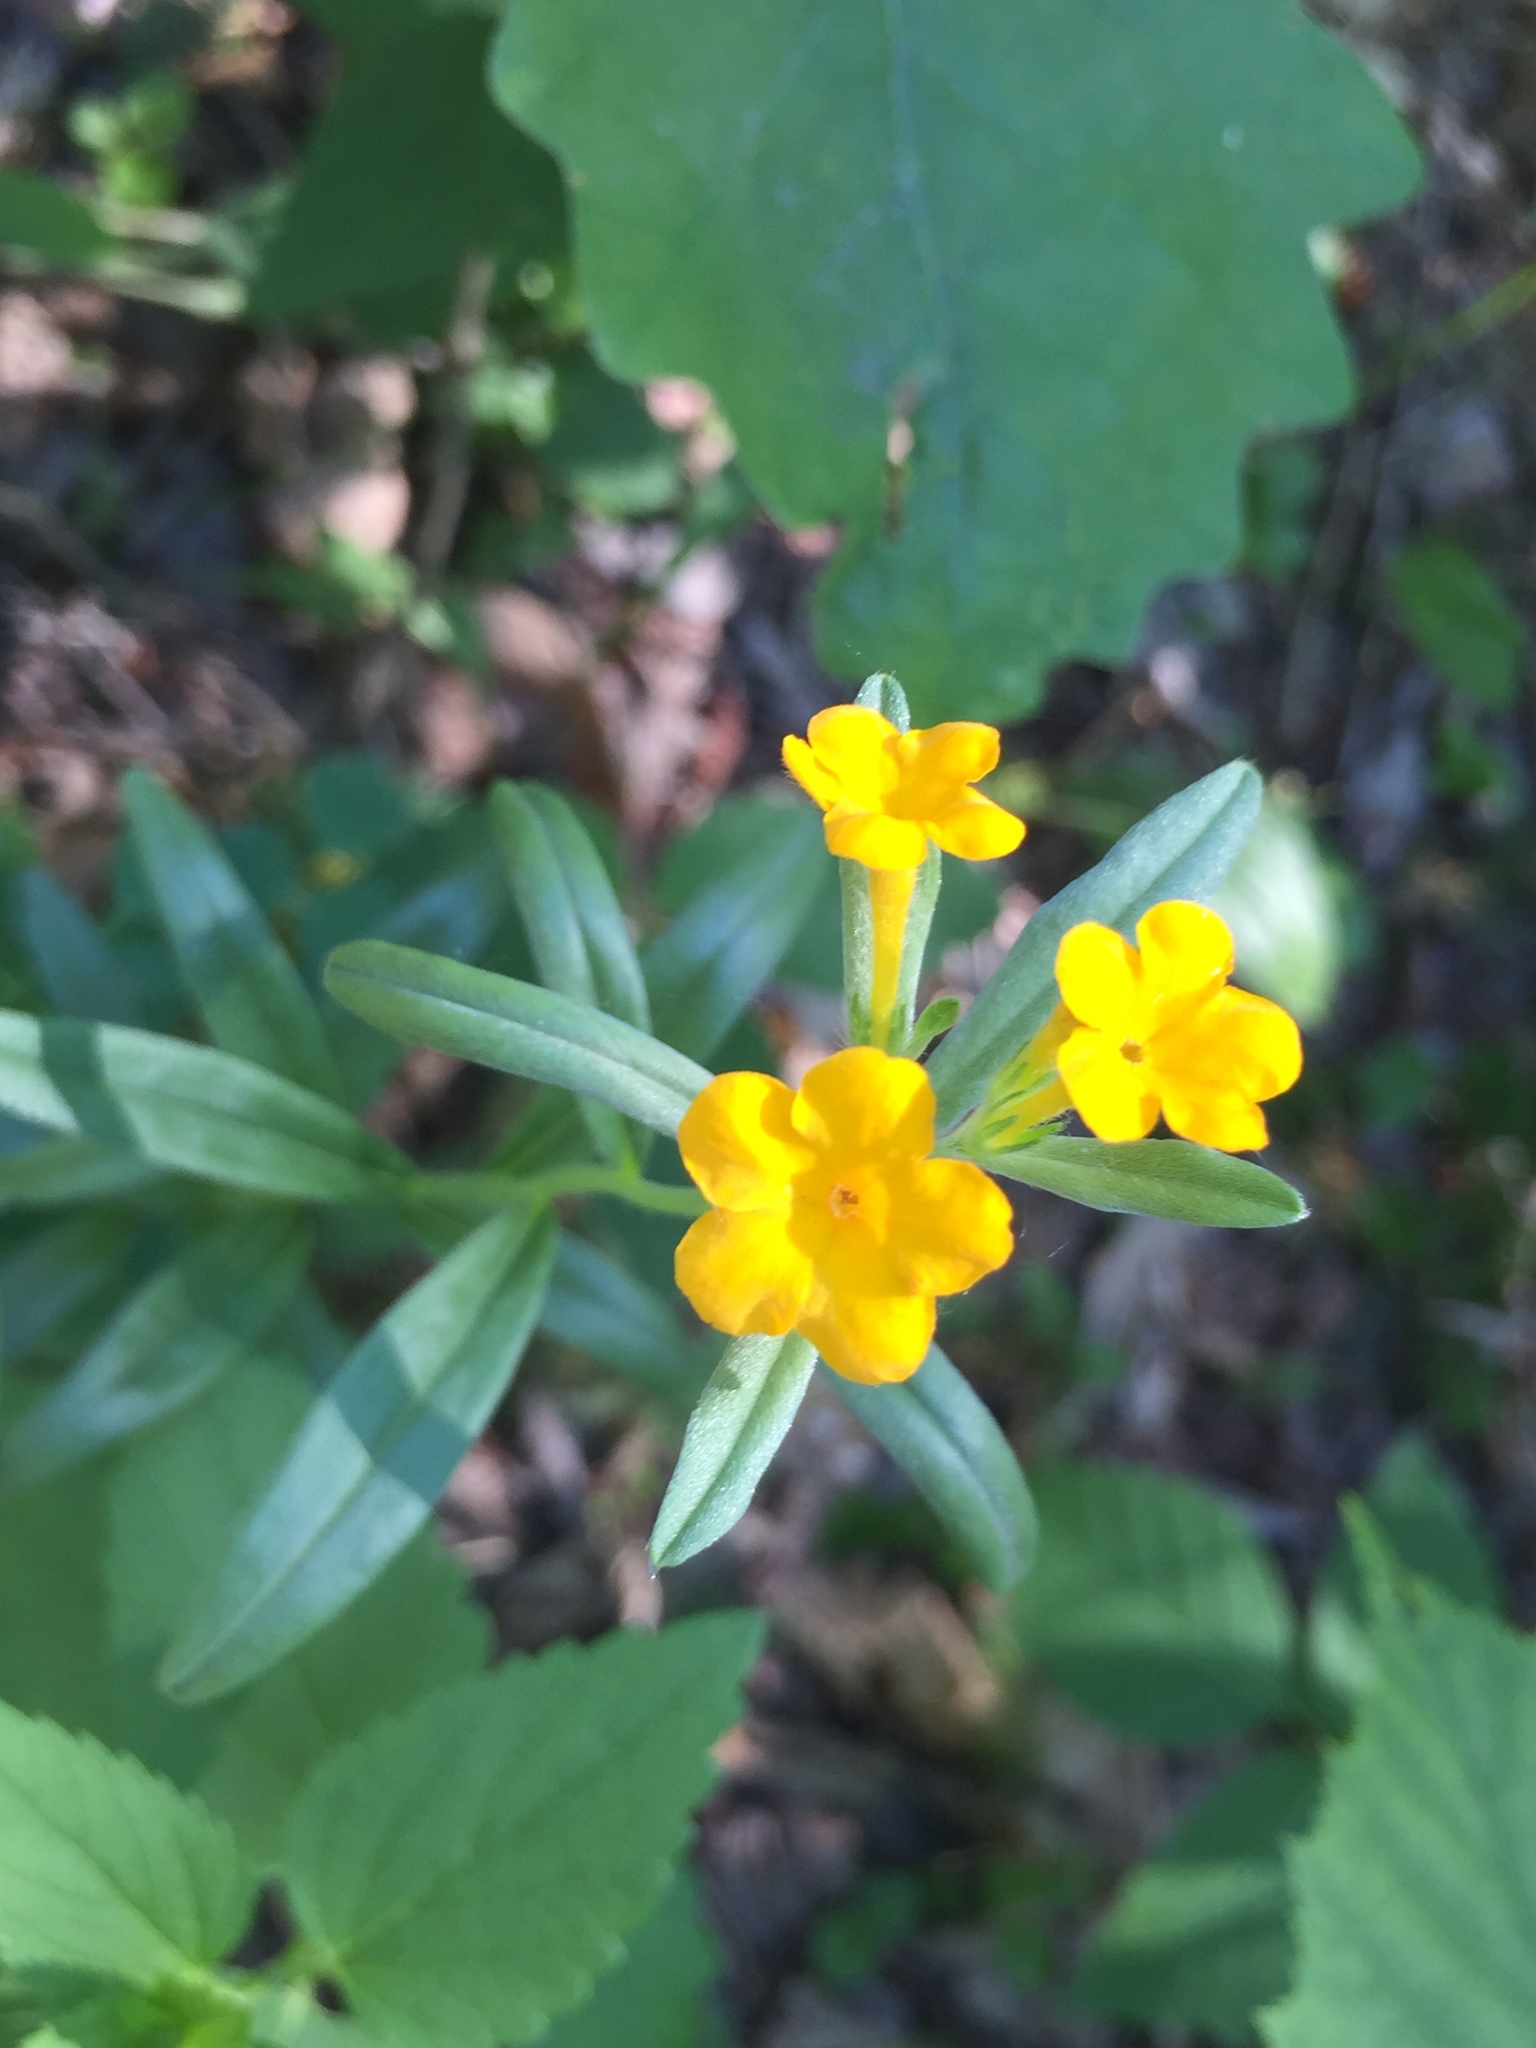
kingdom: Plantae
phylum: Tracheophyta
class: Magnoliopsida
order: Boraginales
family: Boraginaceae
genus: Lithospermum
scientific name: Lithospermum canescens
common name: Hoary puccoon
